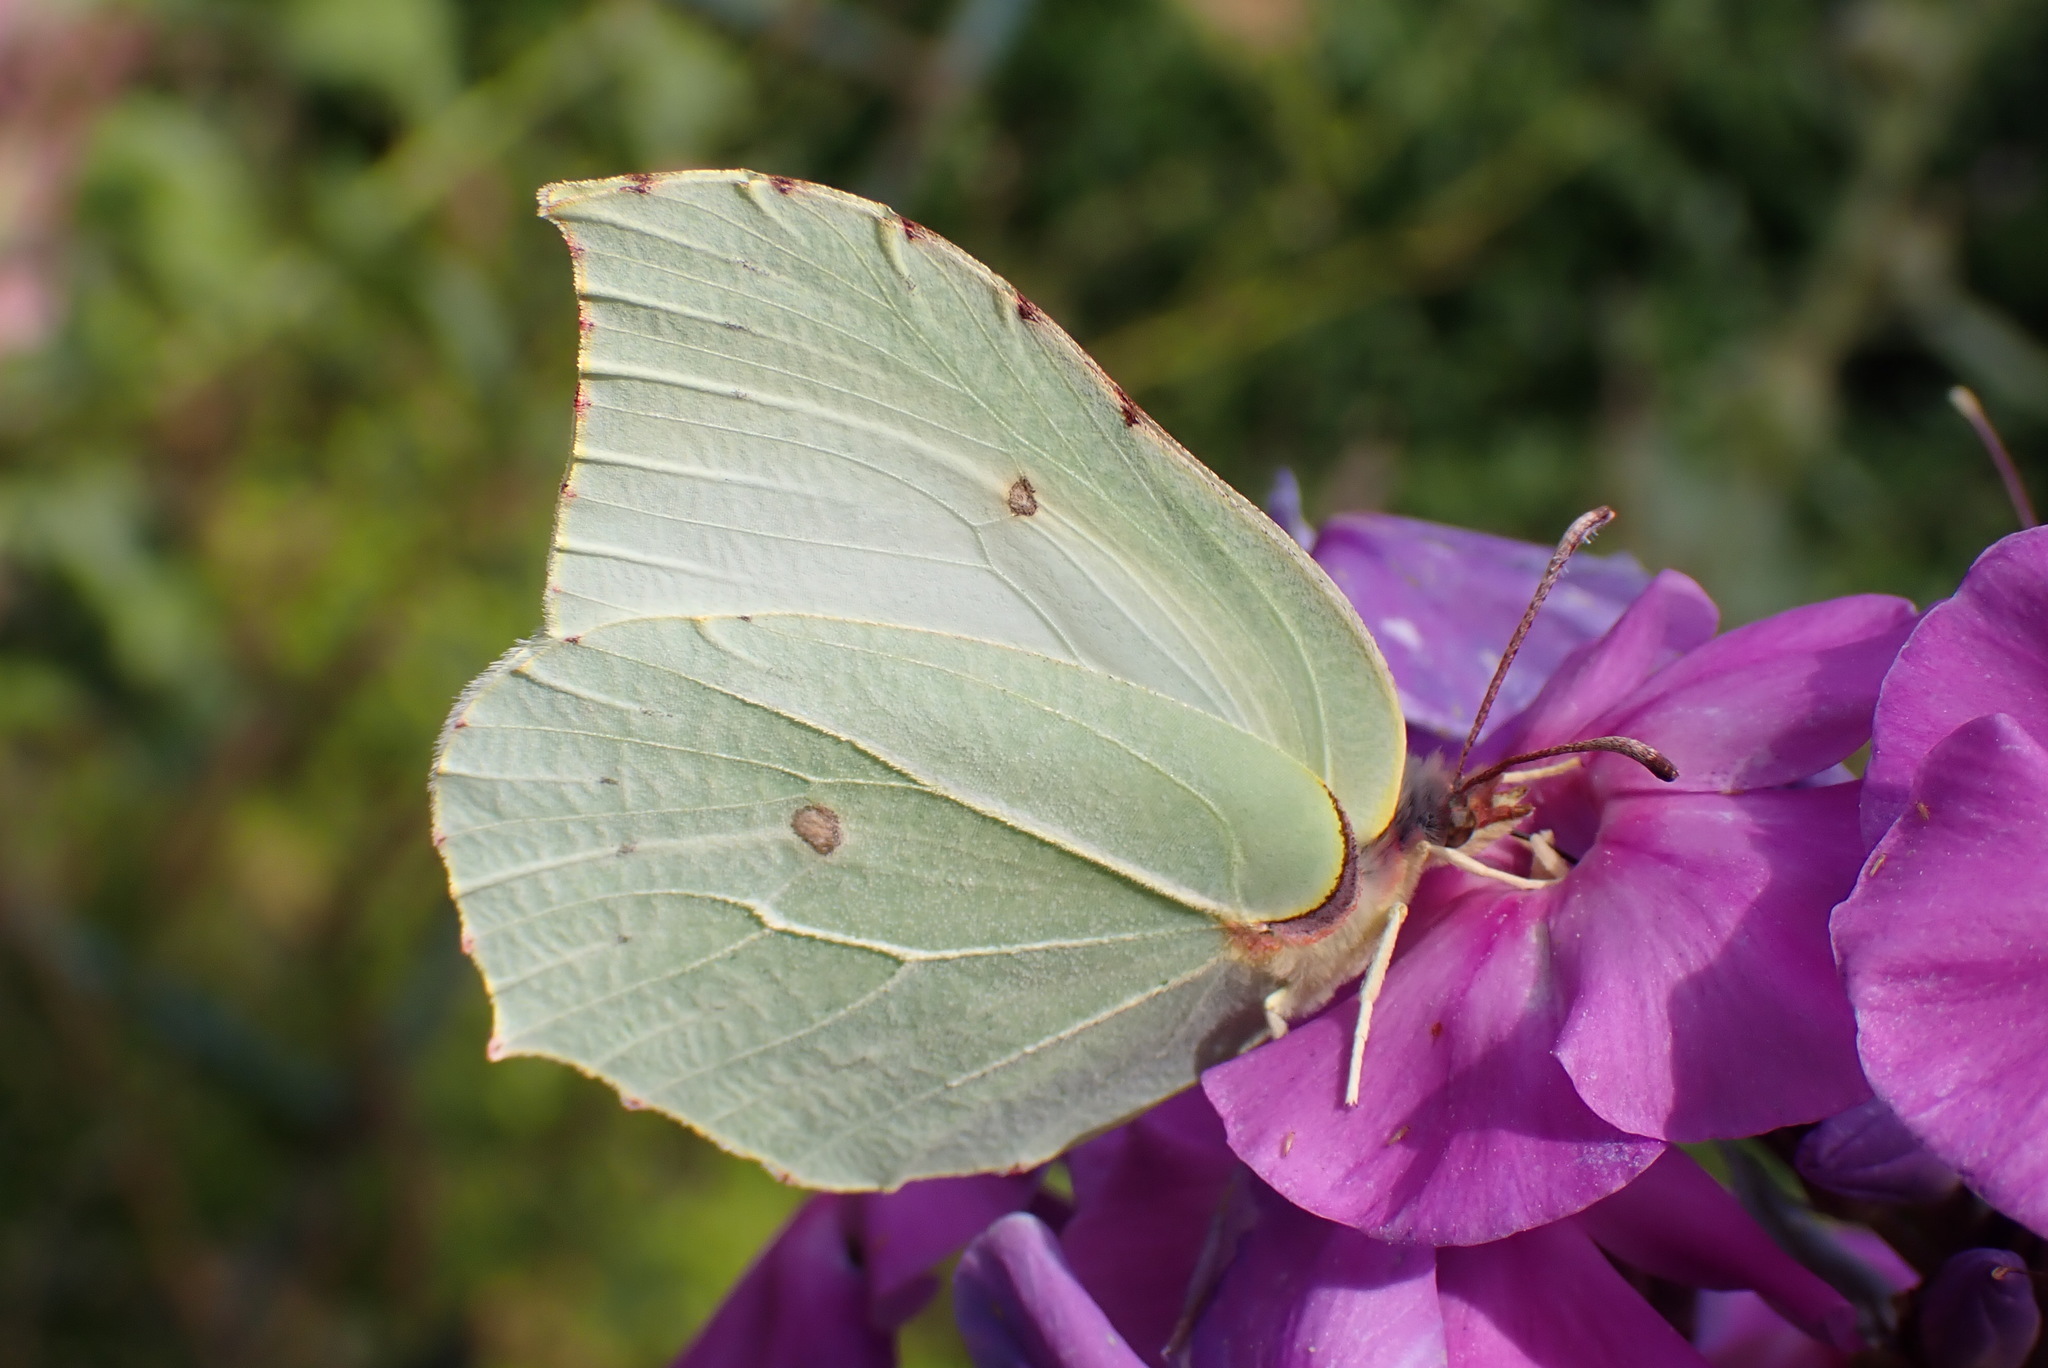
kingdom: Animalia
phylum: Arthropoda
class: Insecta
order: Lepidoptera
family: Pieridae
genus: Gonepteryx
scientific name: Gonepteryx rhamni
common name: Brimstone
